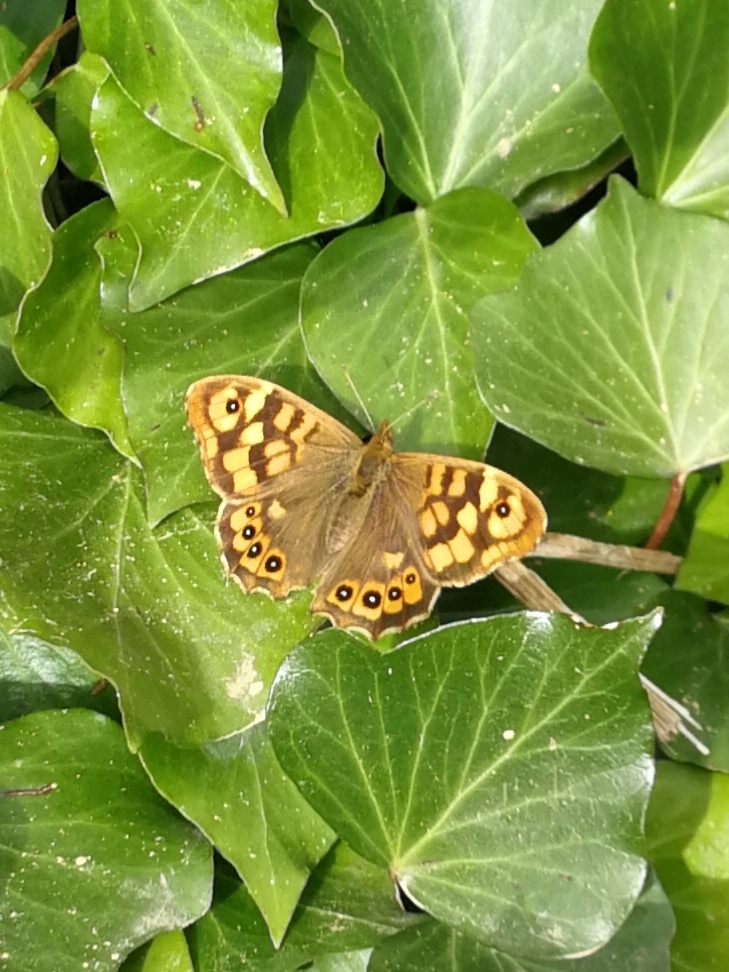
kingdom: Animalia
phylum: Arthropoda
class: Insecta
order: Lepidoptera
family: Nymphalidae
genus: Pararge
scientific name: Pararge aegeria
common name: Speckled wood
